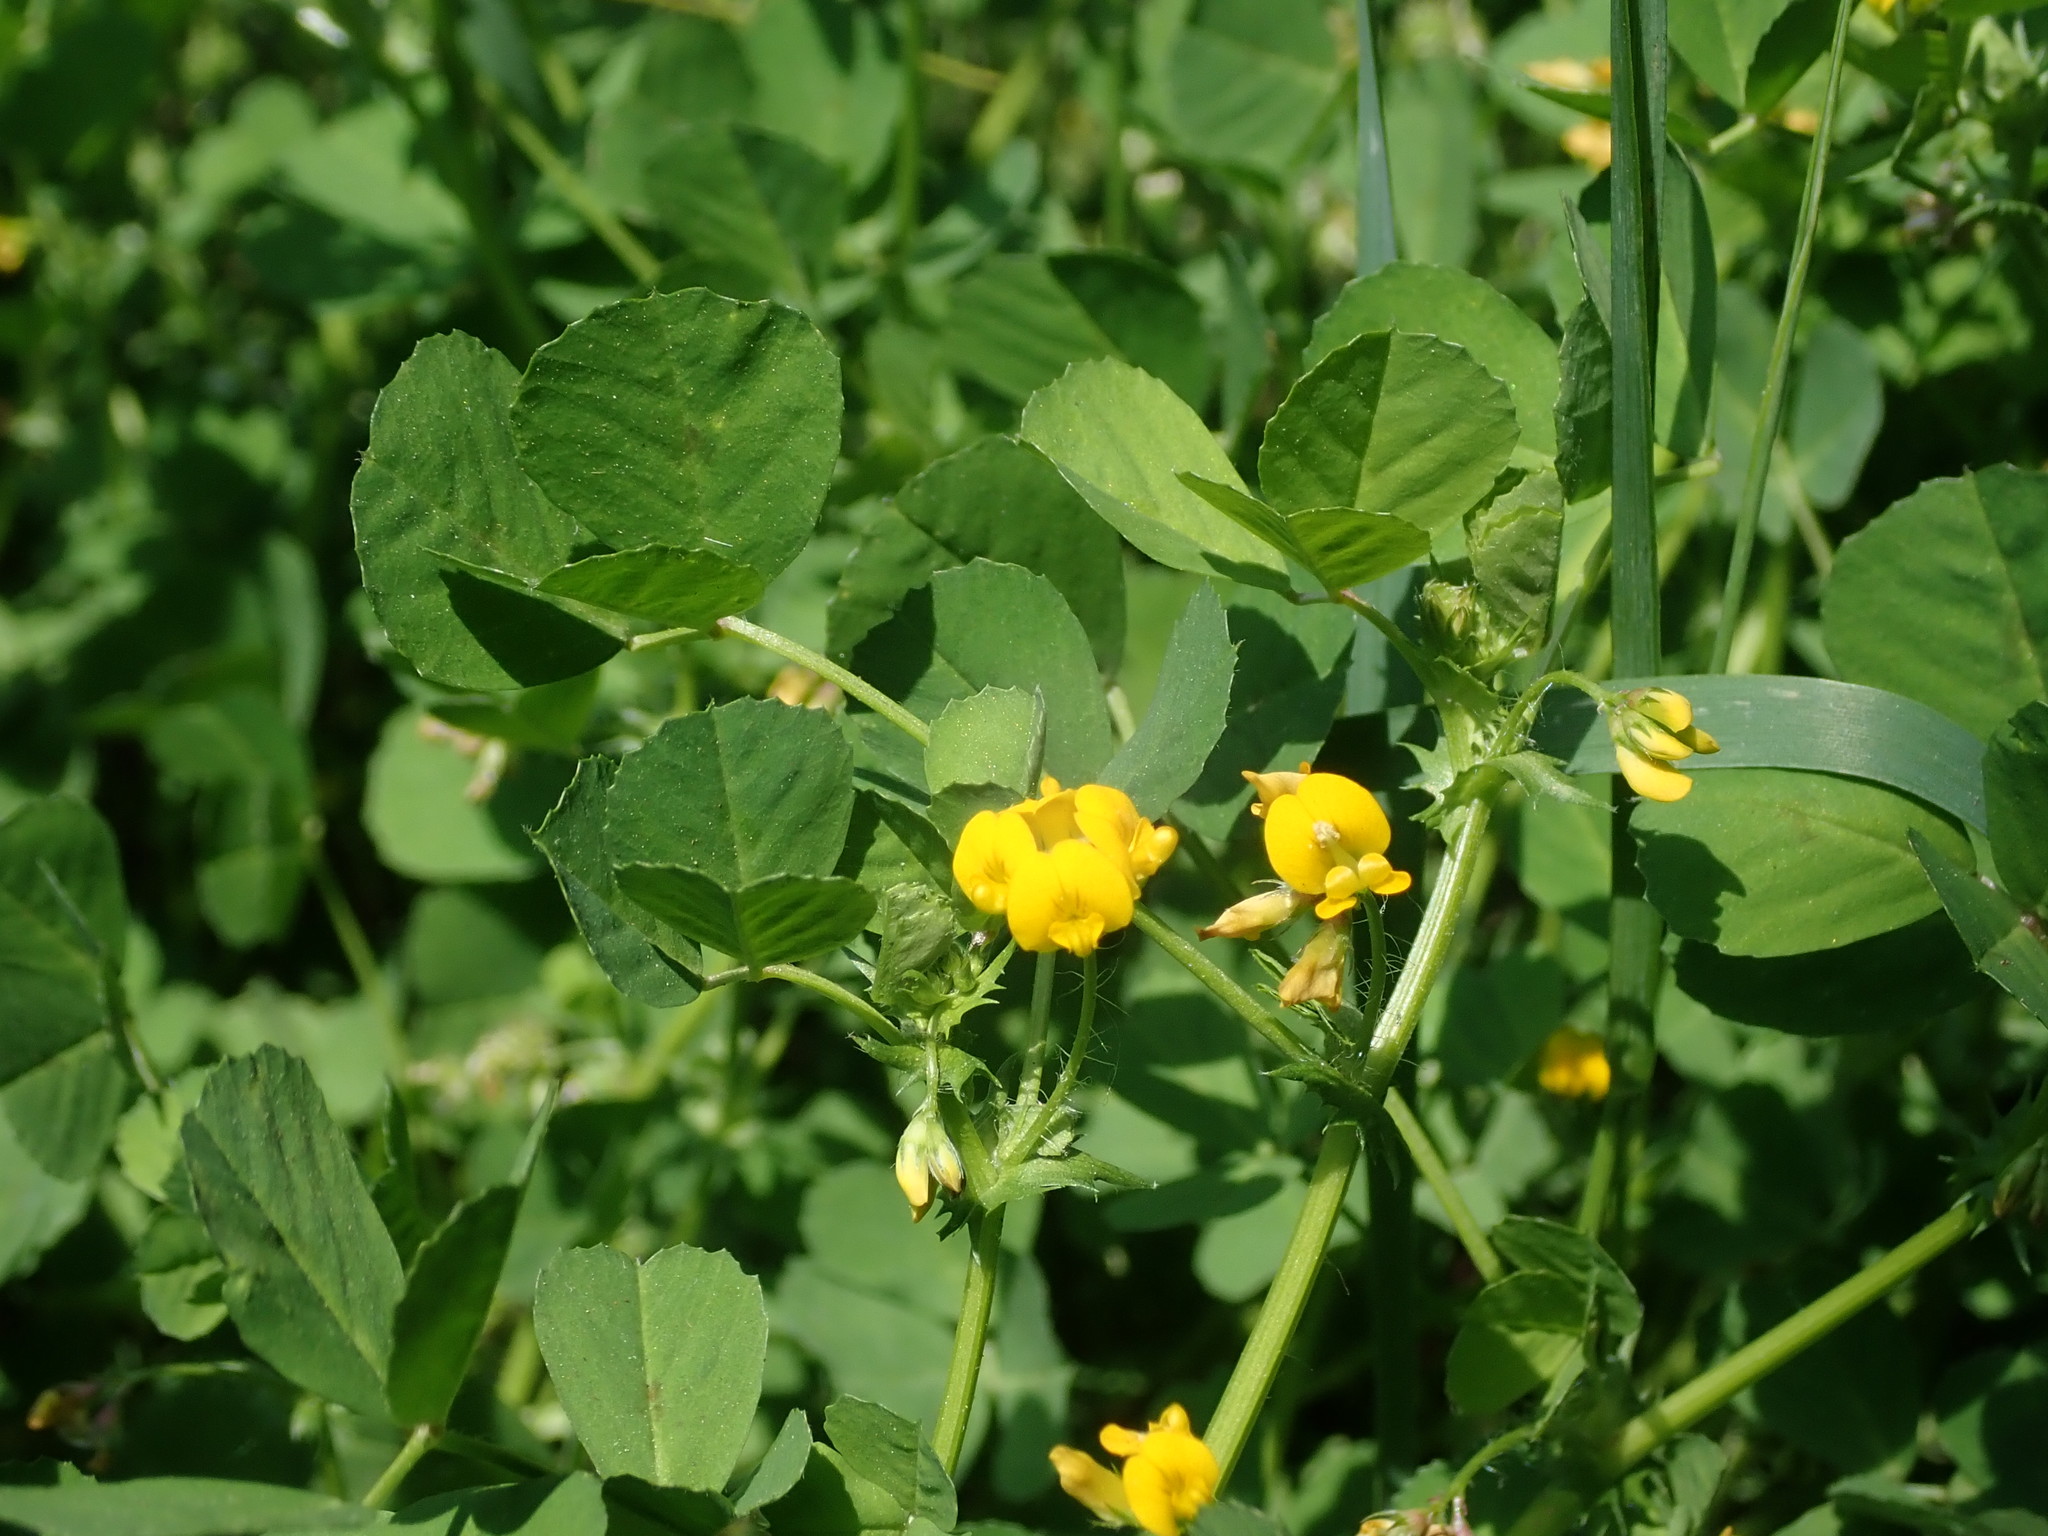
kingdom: Plantae
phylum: Tracheophyta
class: Magnoliopsida
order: Fabales
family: Fabaceae
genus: Medicago
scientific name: Medicago arabica
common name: Spotted medick
